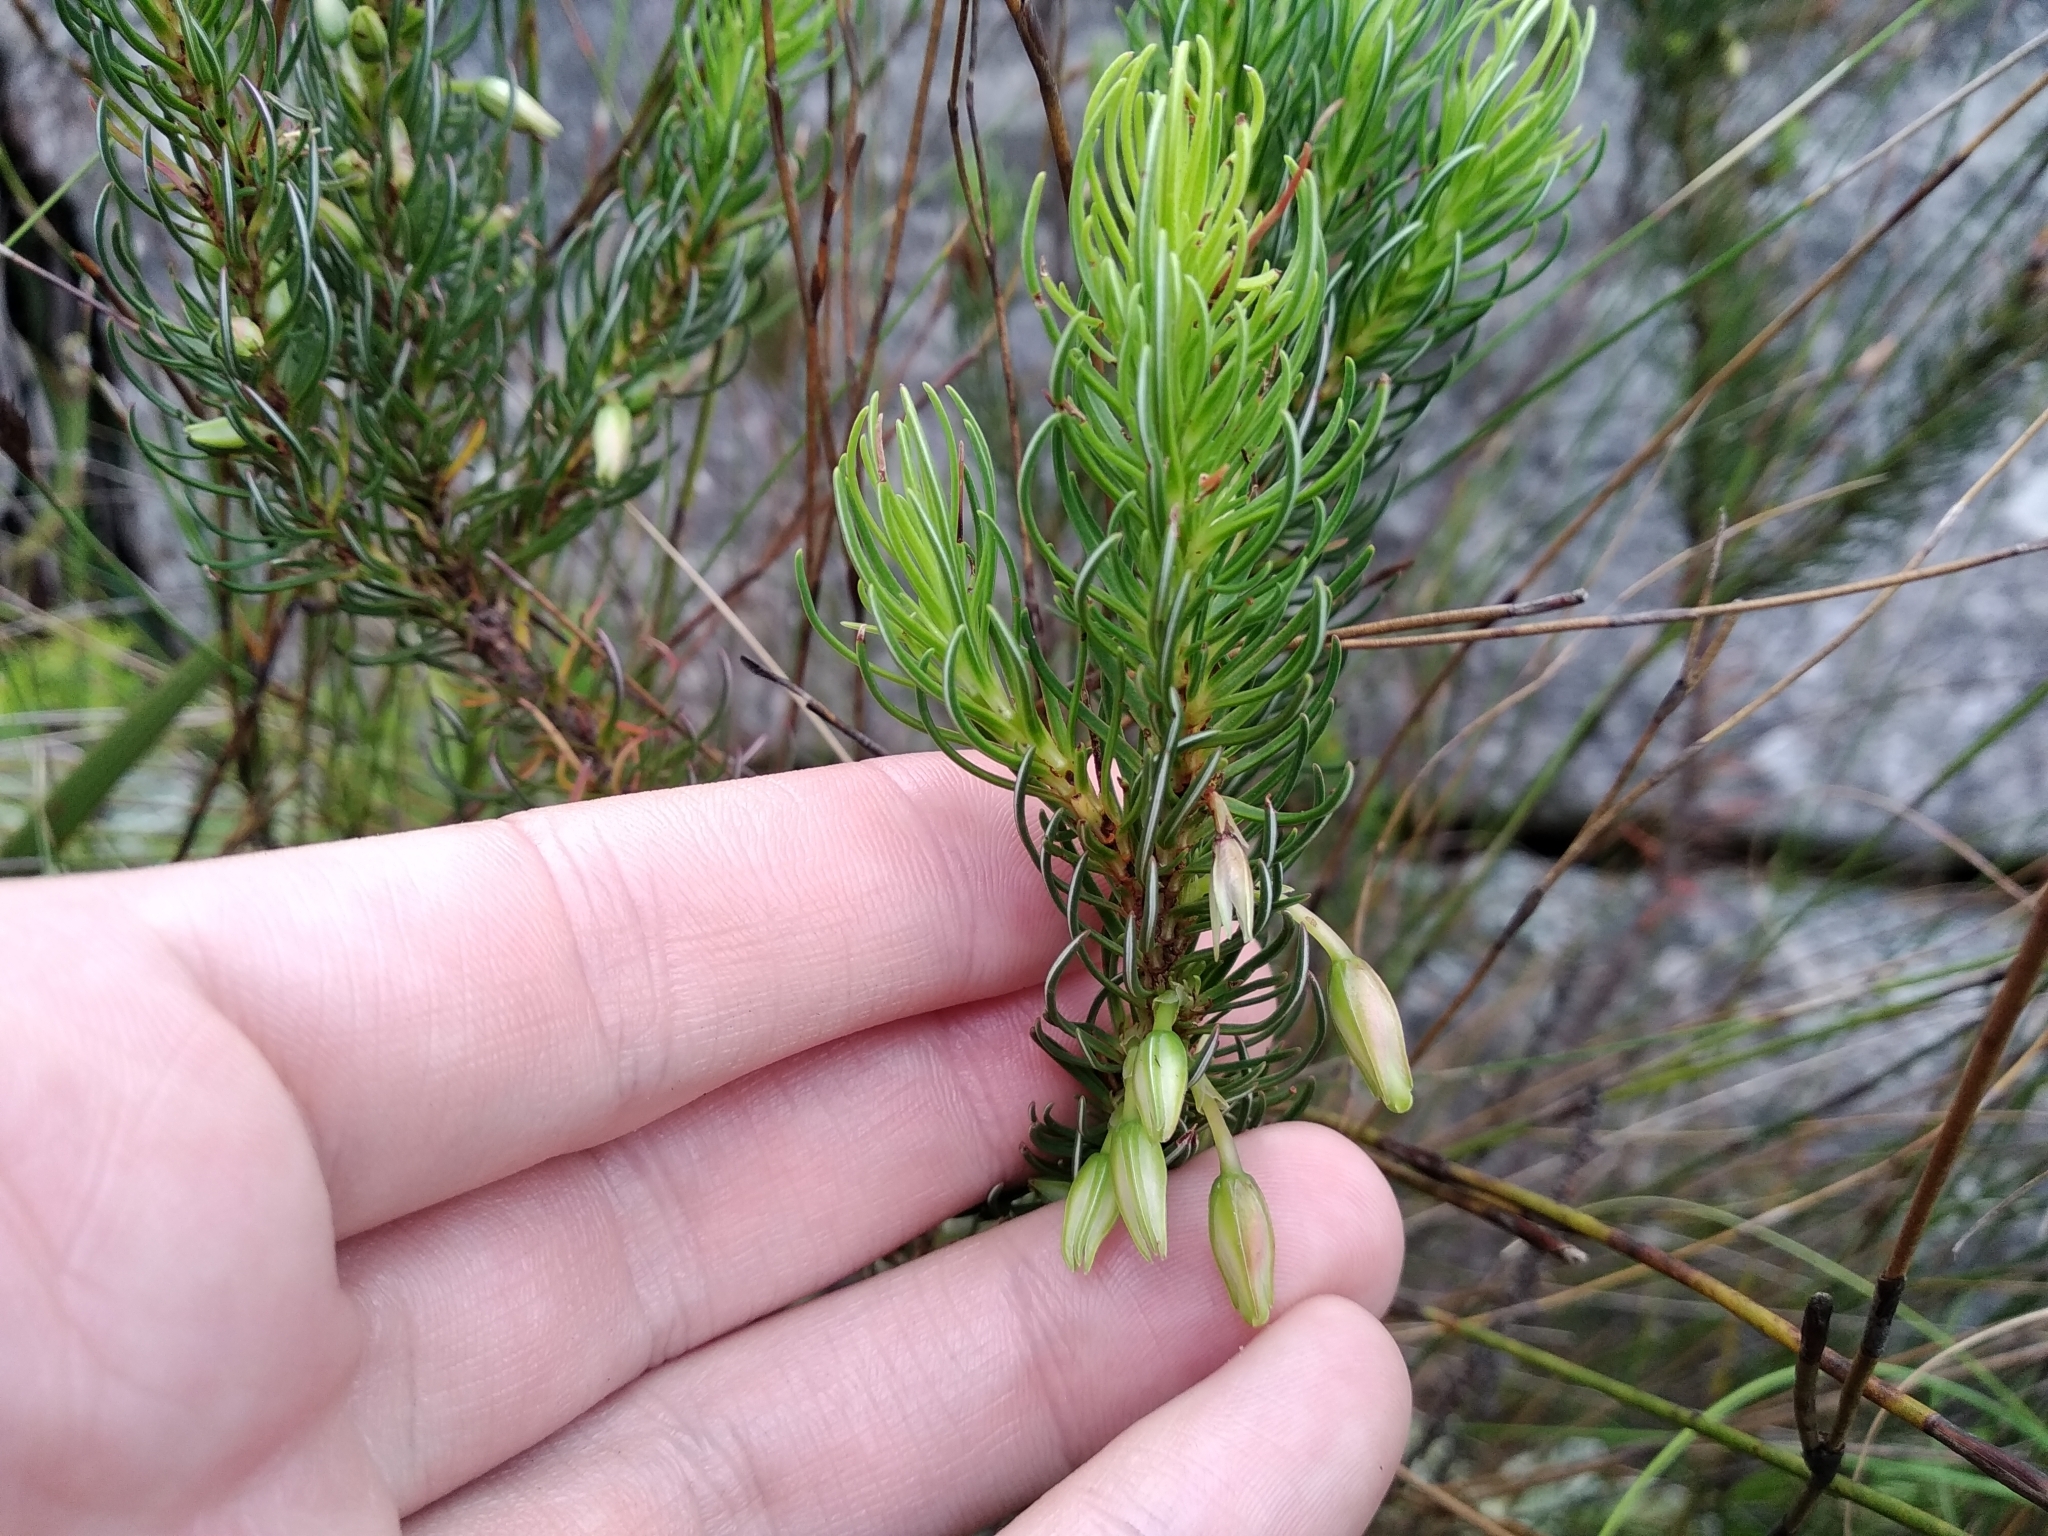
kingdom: Plantae
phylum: Tracheophyta
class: Magnoliopsida
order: Ericales
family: Ericaceae
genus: Erica
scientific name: Erica plukenetii
